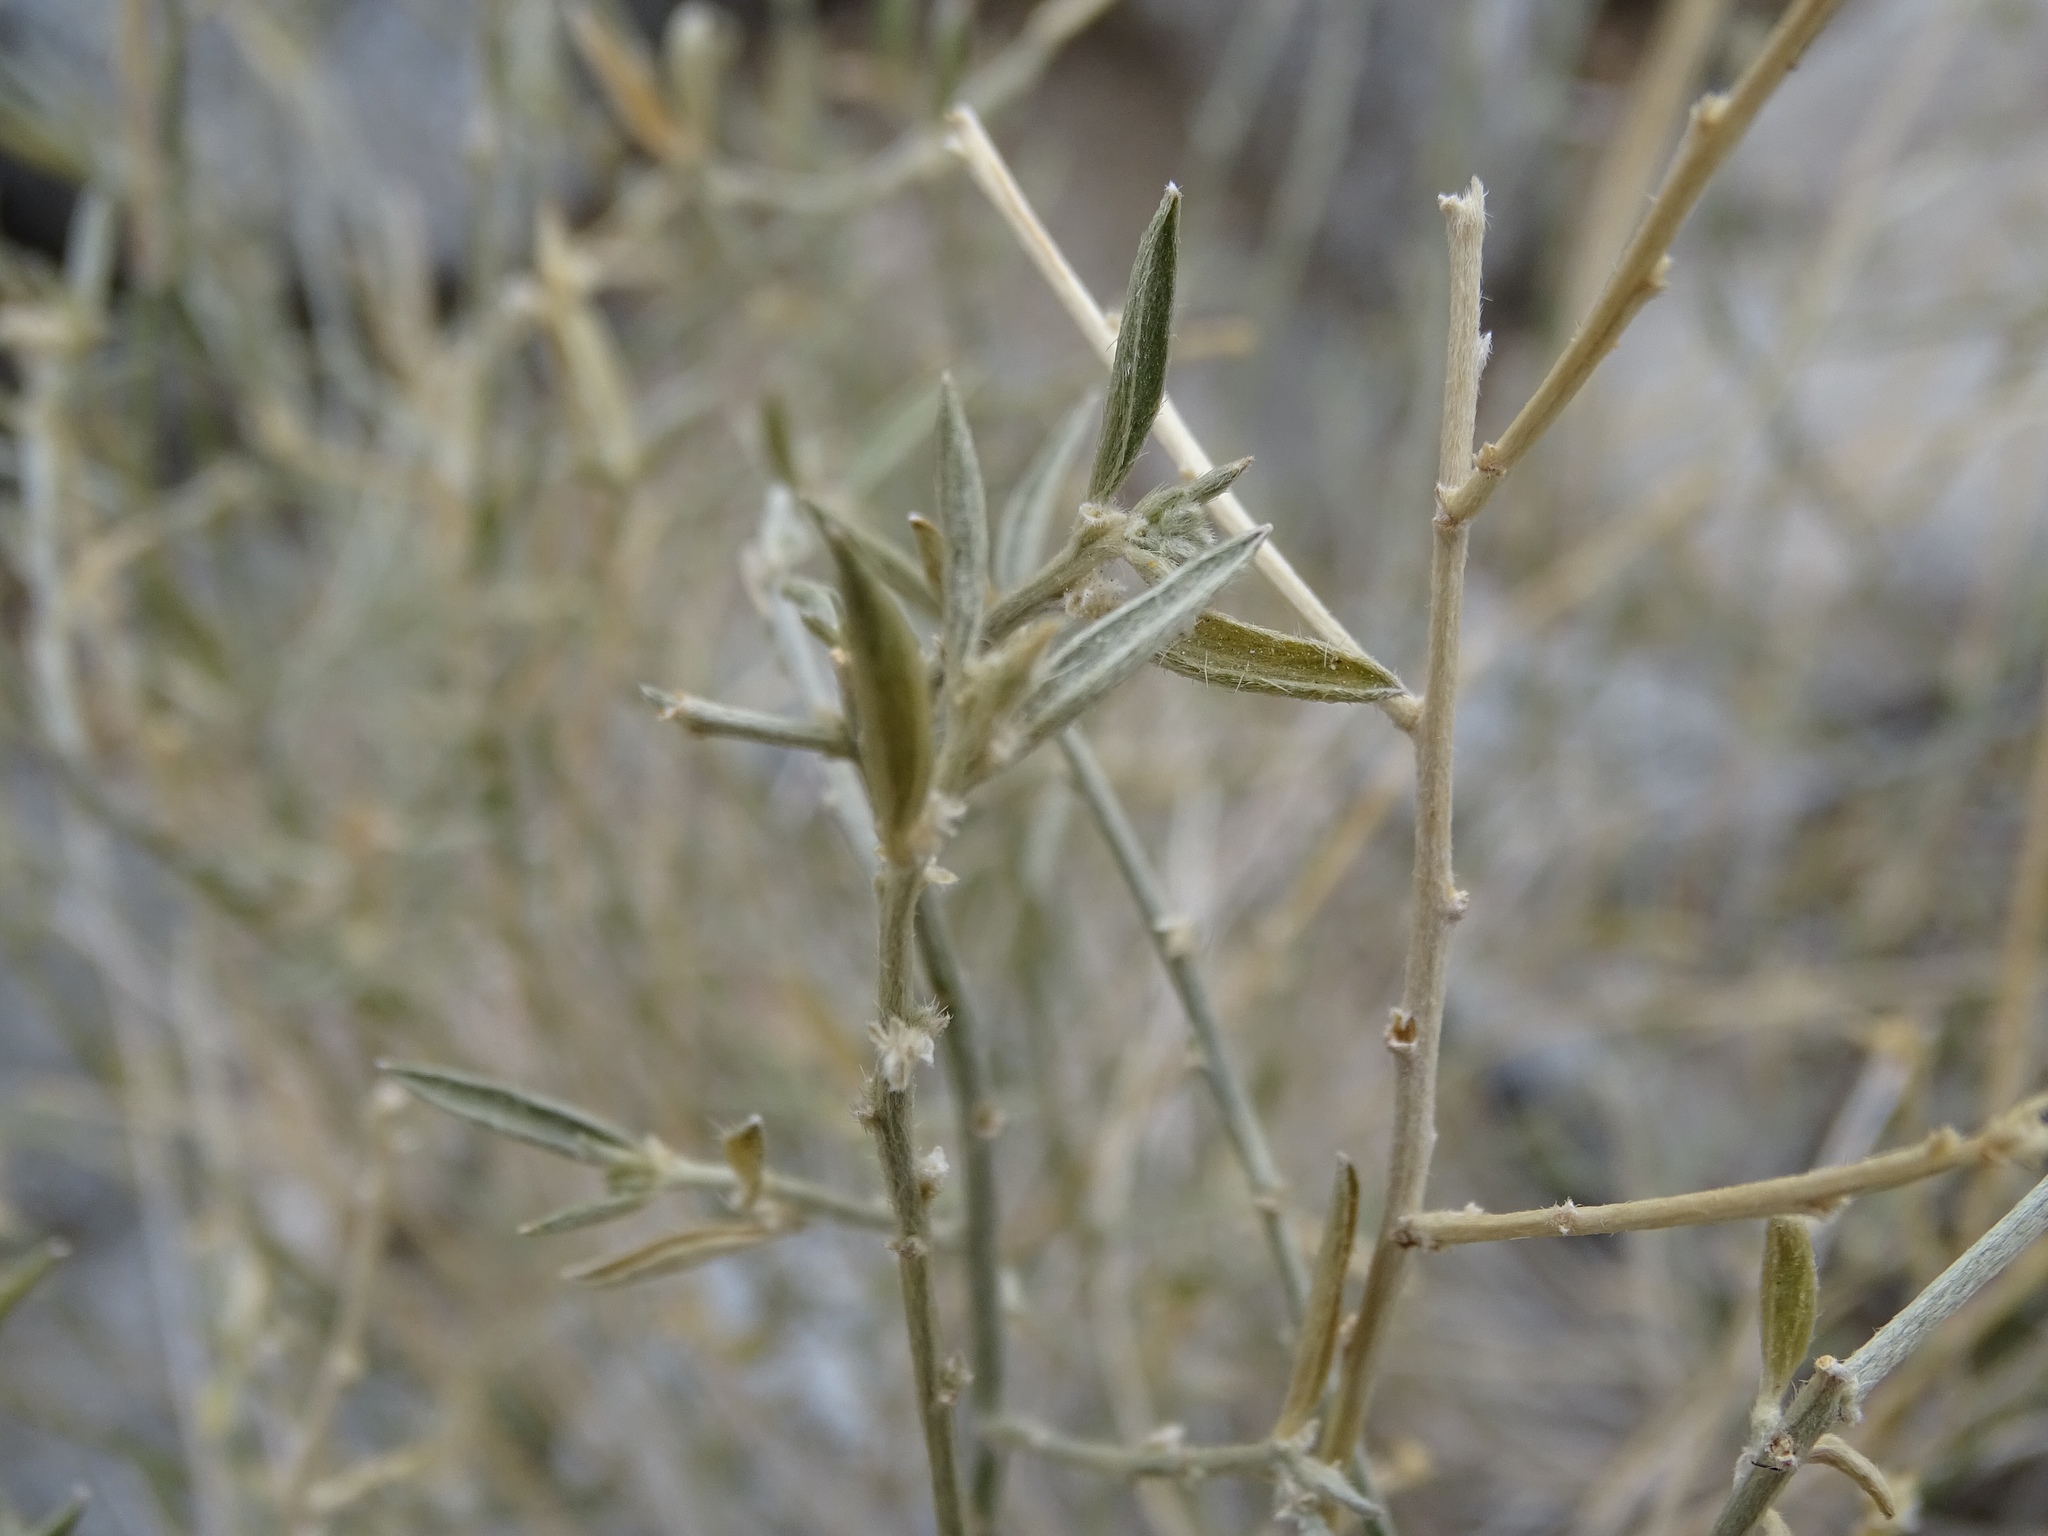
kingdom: Plantae
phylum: Tracheophyta
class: Magnoliopsida
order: Malpighiales
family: Euphorbiaceae
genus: Ditaxis
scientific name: Ditaxis lanceolata
